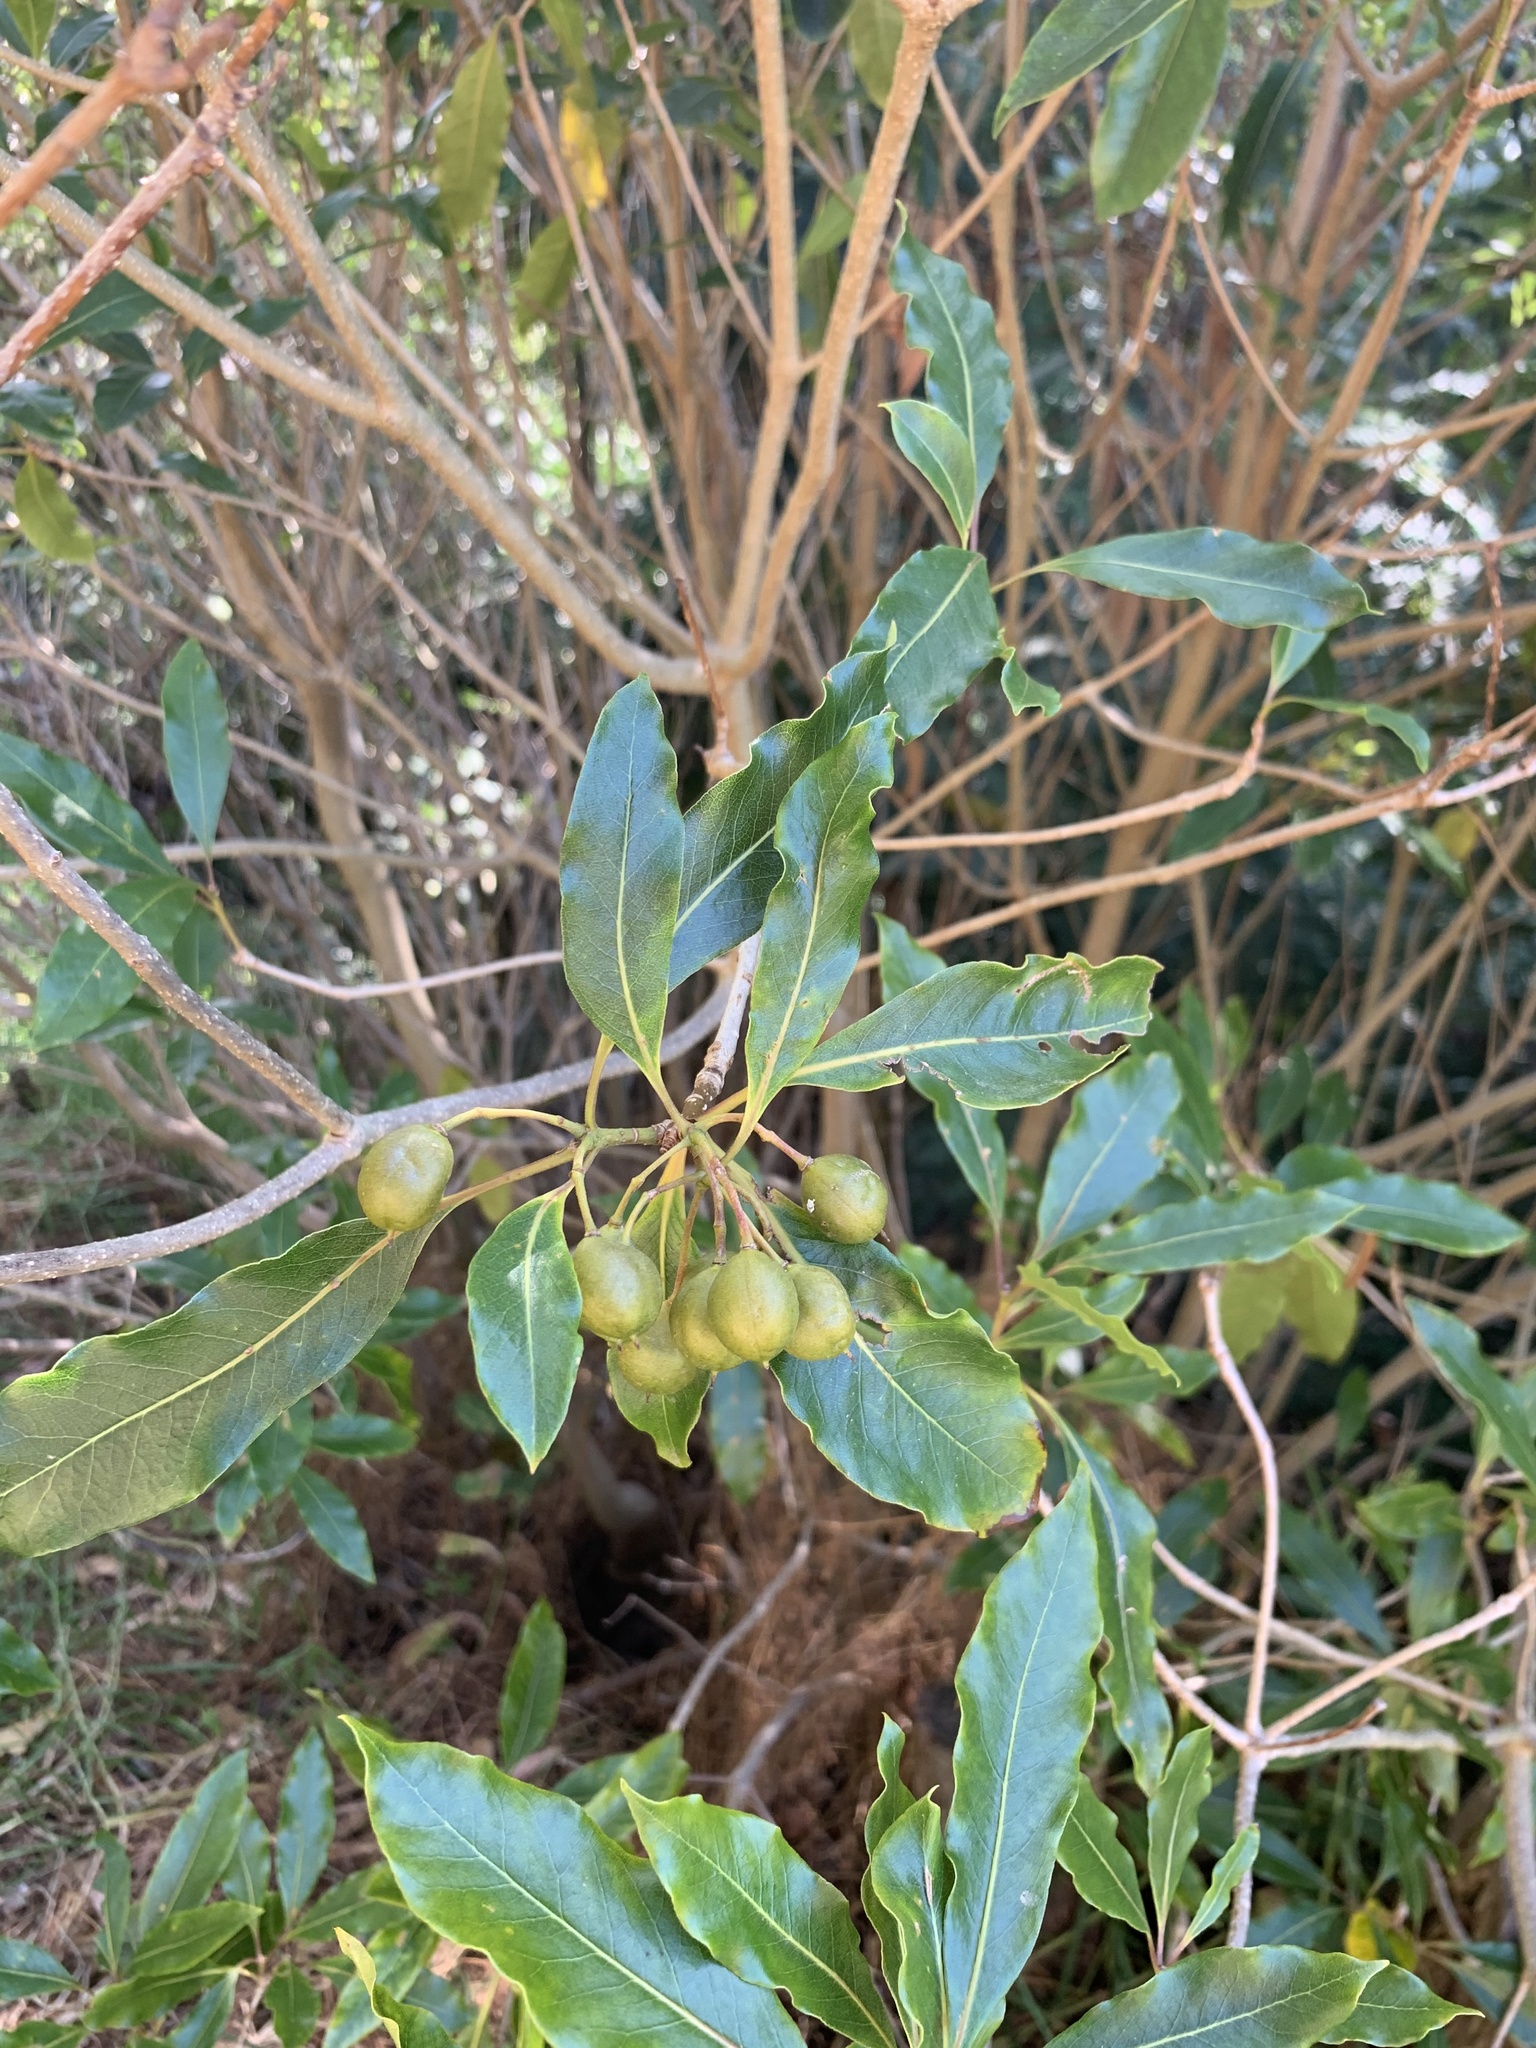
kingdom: Plantae
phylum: Tracheophyta
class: Magnoliopsida
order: Apiales
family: Pittosporaceae
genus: Pittosporum
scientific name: Pittosporum undulatum
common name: Australian cheesewood
